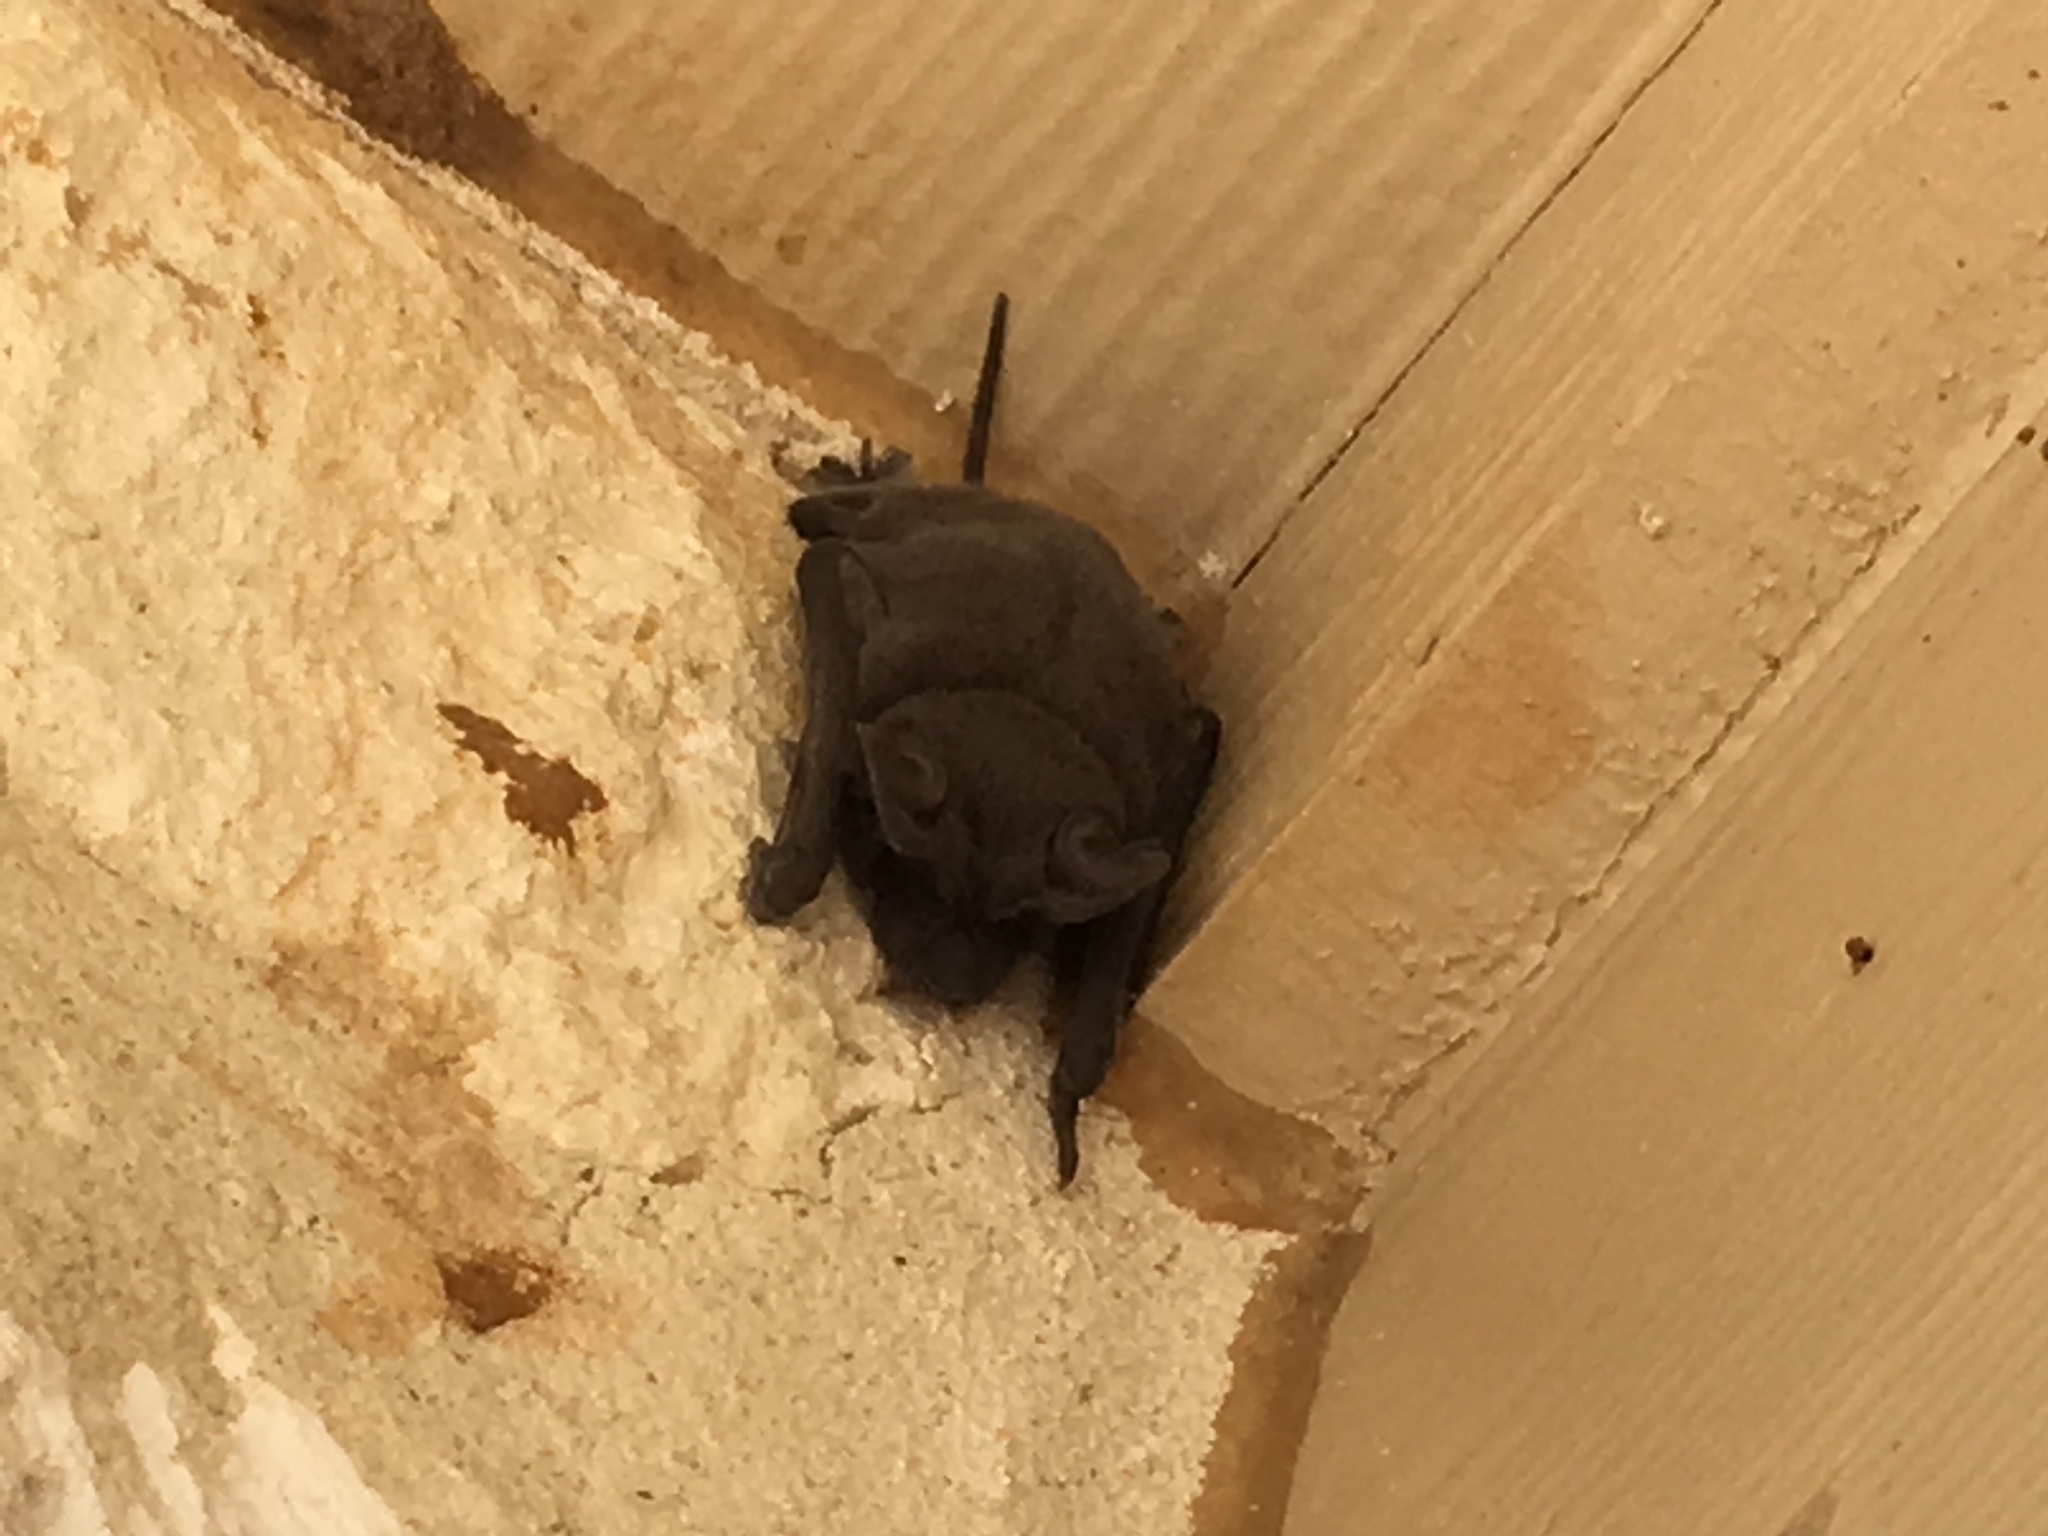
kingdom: Animalia
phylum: Chordata
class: Mammalia
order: Chiroptera
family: Molossidae
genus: Tadarida
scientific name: Tadarida brasiliensis
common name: Mexican free-tailed bat
